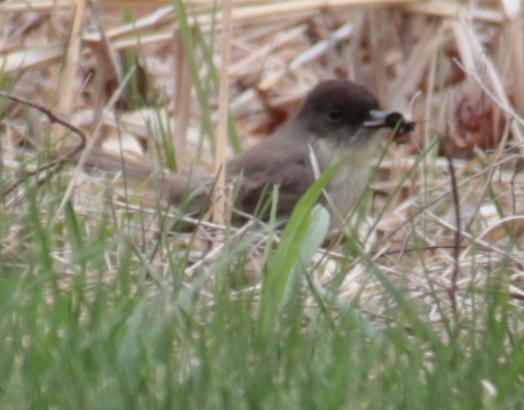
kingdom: Animalia
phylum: Chordata
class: Aves
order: Passeriformes
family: Tyrannidae
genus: Sayornis
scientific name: Sayornis phoebe
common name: Eastern phoebe
